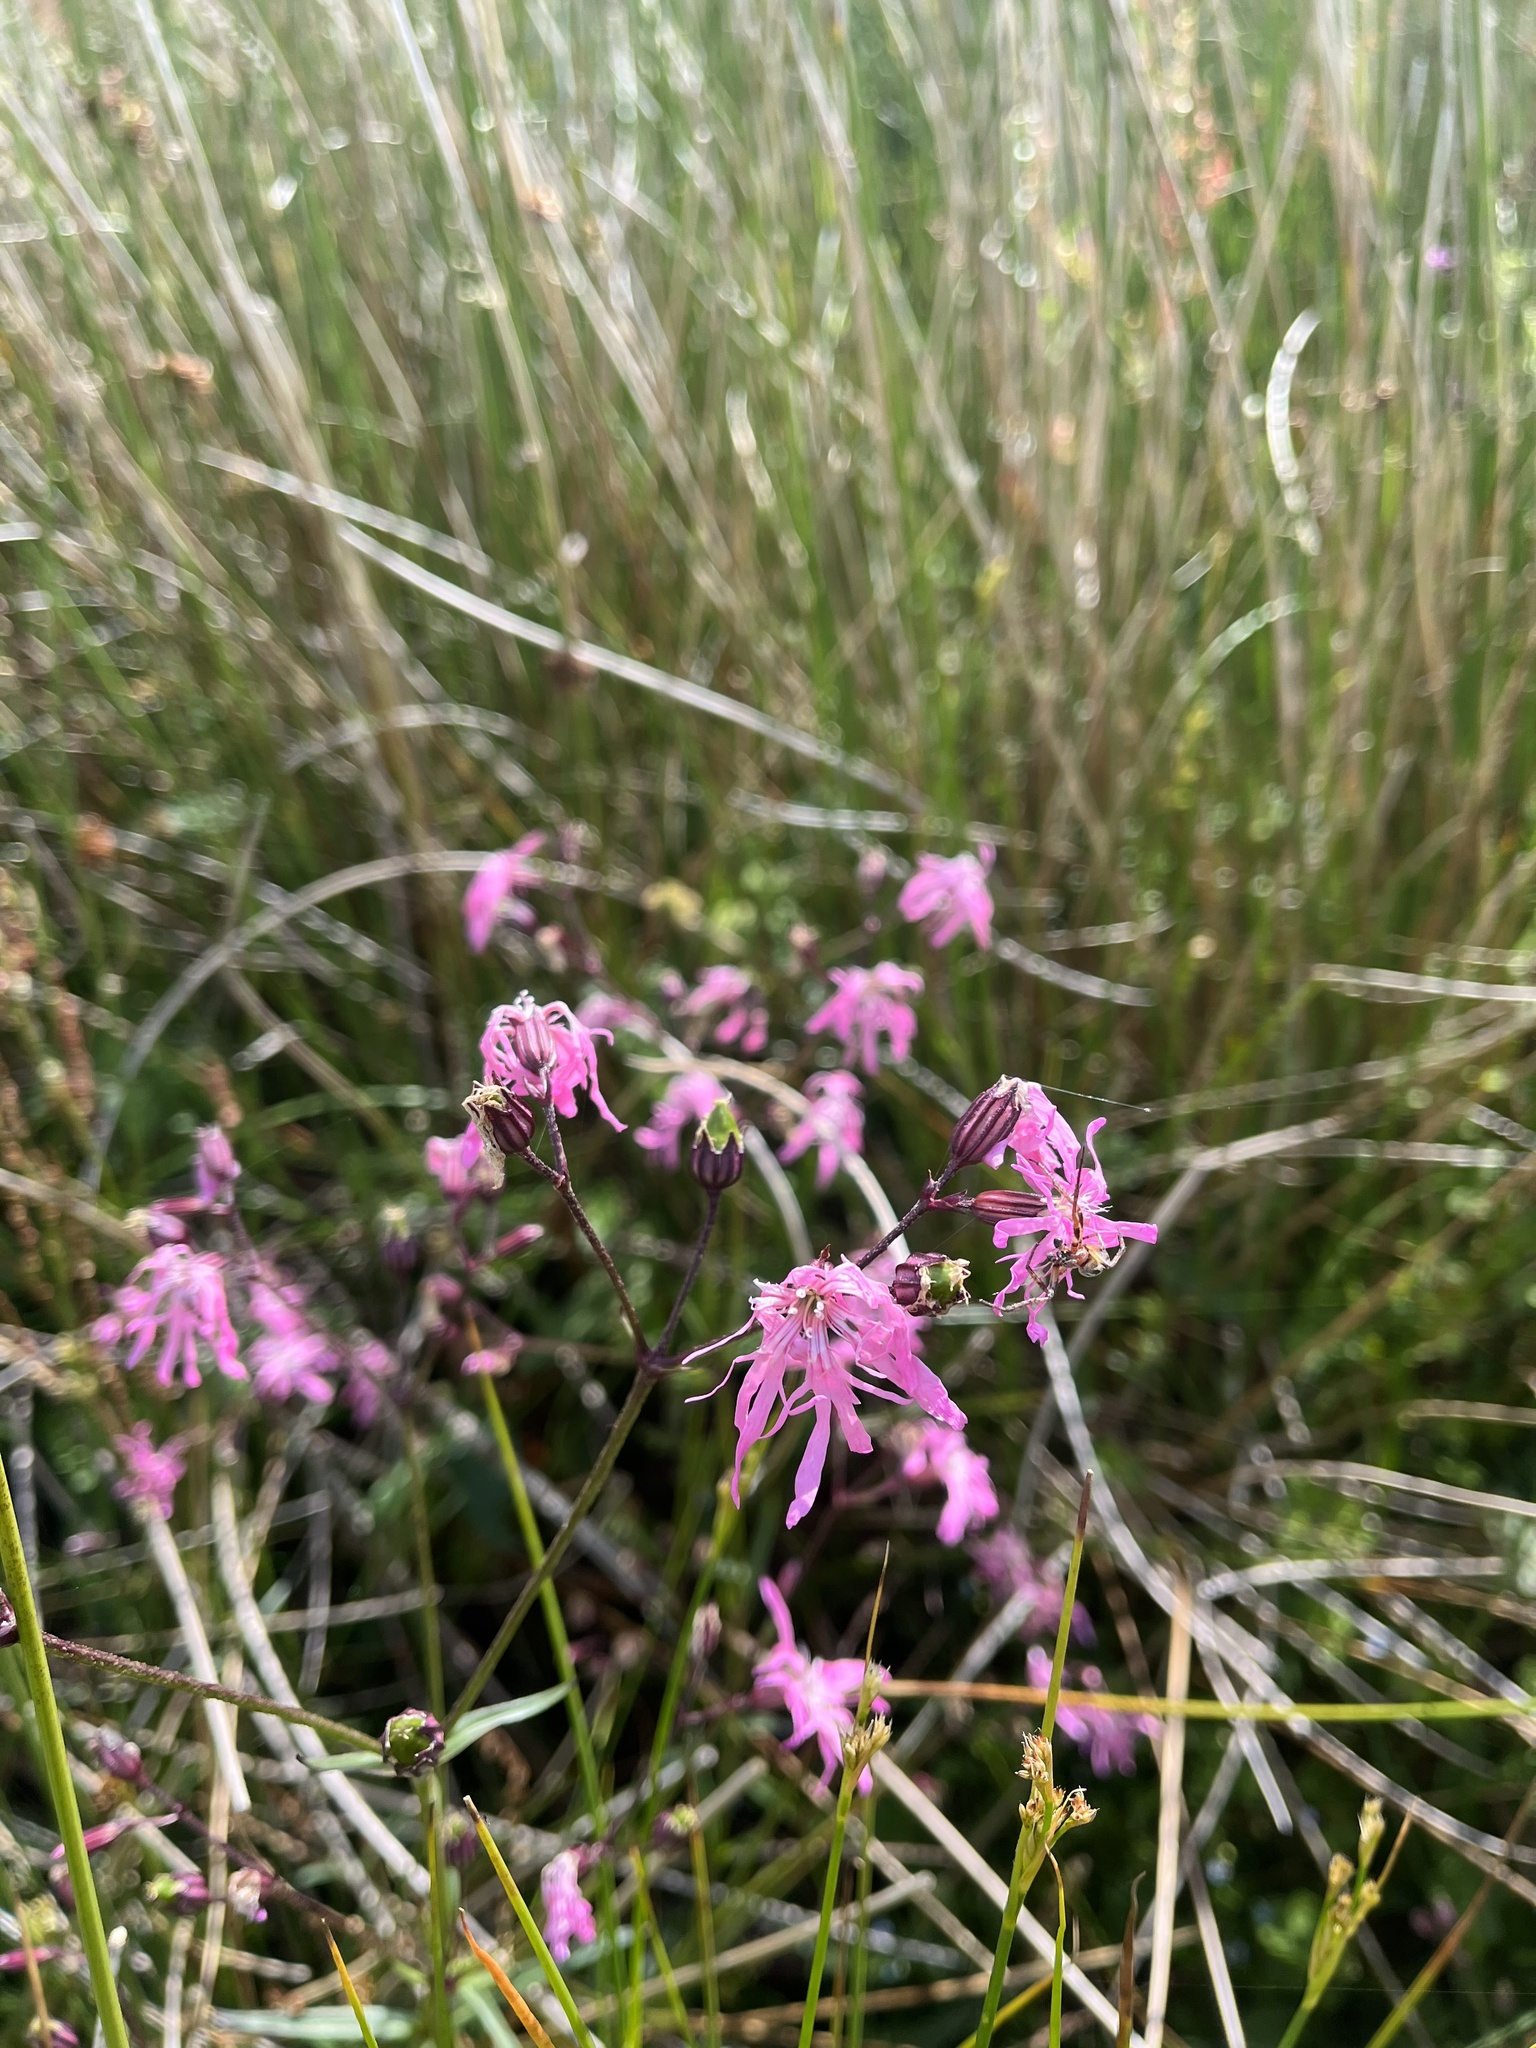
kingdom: Plantae
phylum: Tracheophyta
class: Magnoliopsida
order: Caryophyllales
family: Caryophyllaceae
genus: Silene
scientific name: Silene flos-cuculi
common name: Ragged-robin
